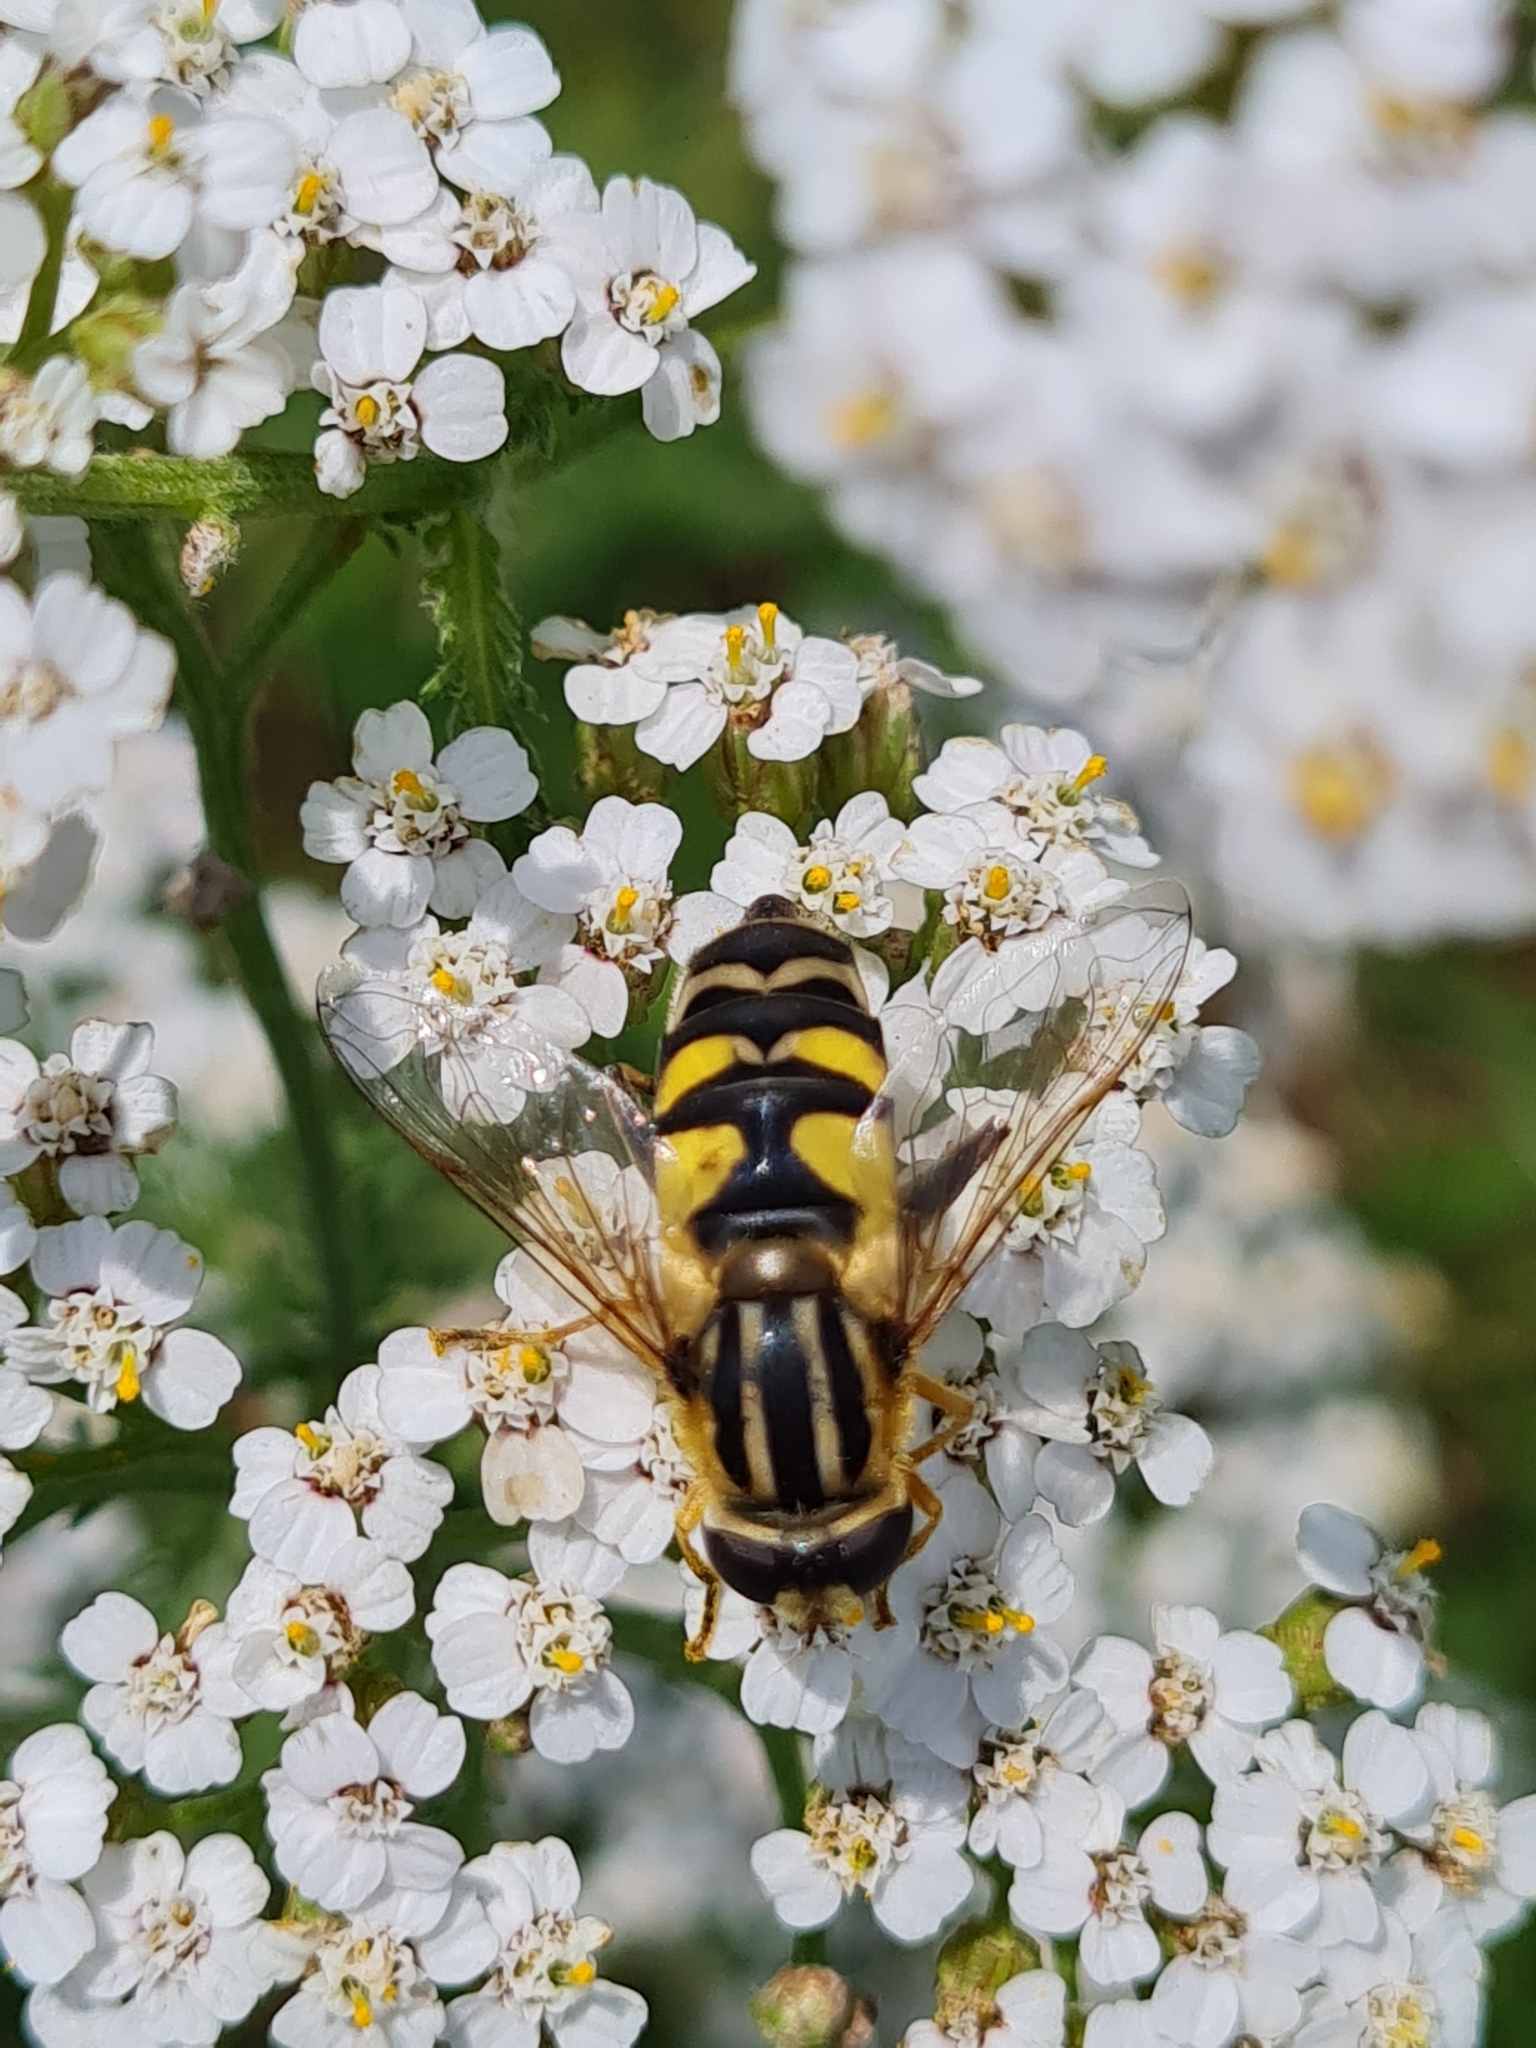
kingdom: Animalia
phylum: Arthropoda
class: Insecta
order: Diptera
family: Syrphidae
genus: Helophilus
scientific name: Helophilus trivittatus
